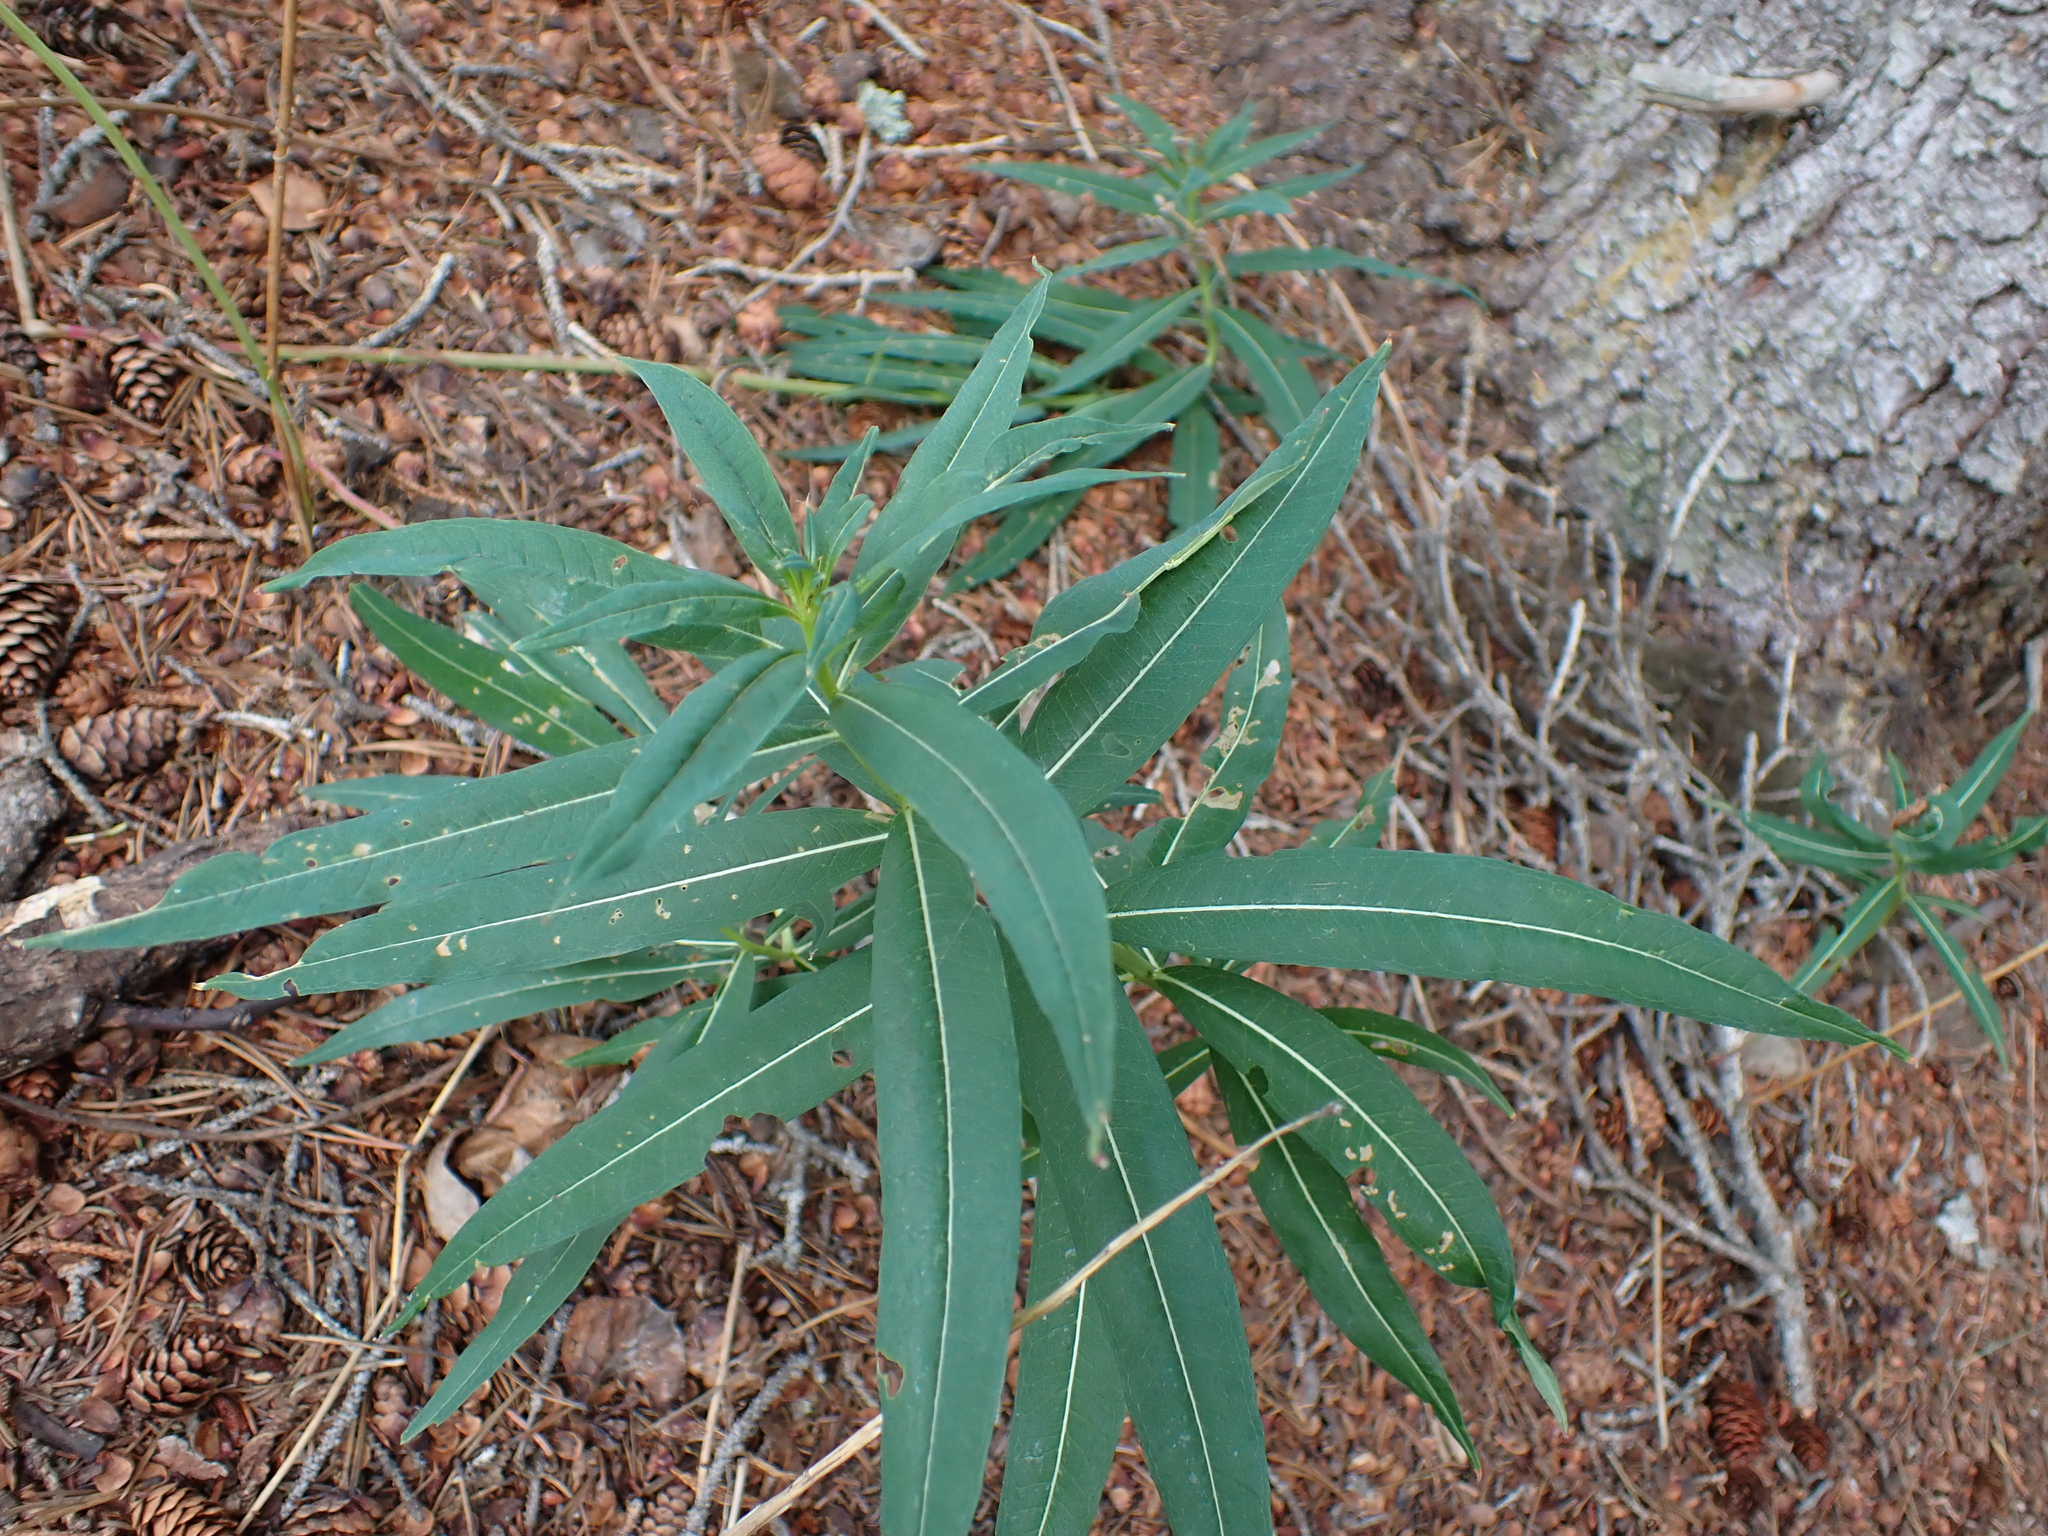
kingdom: Plantae
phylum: Tracheophyta
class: Magnoliopsida
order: Myrtales
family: Onagraceae
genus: Chamaenerion
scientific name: Chamaenerion angustifolium
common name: Fireweed
